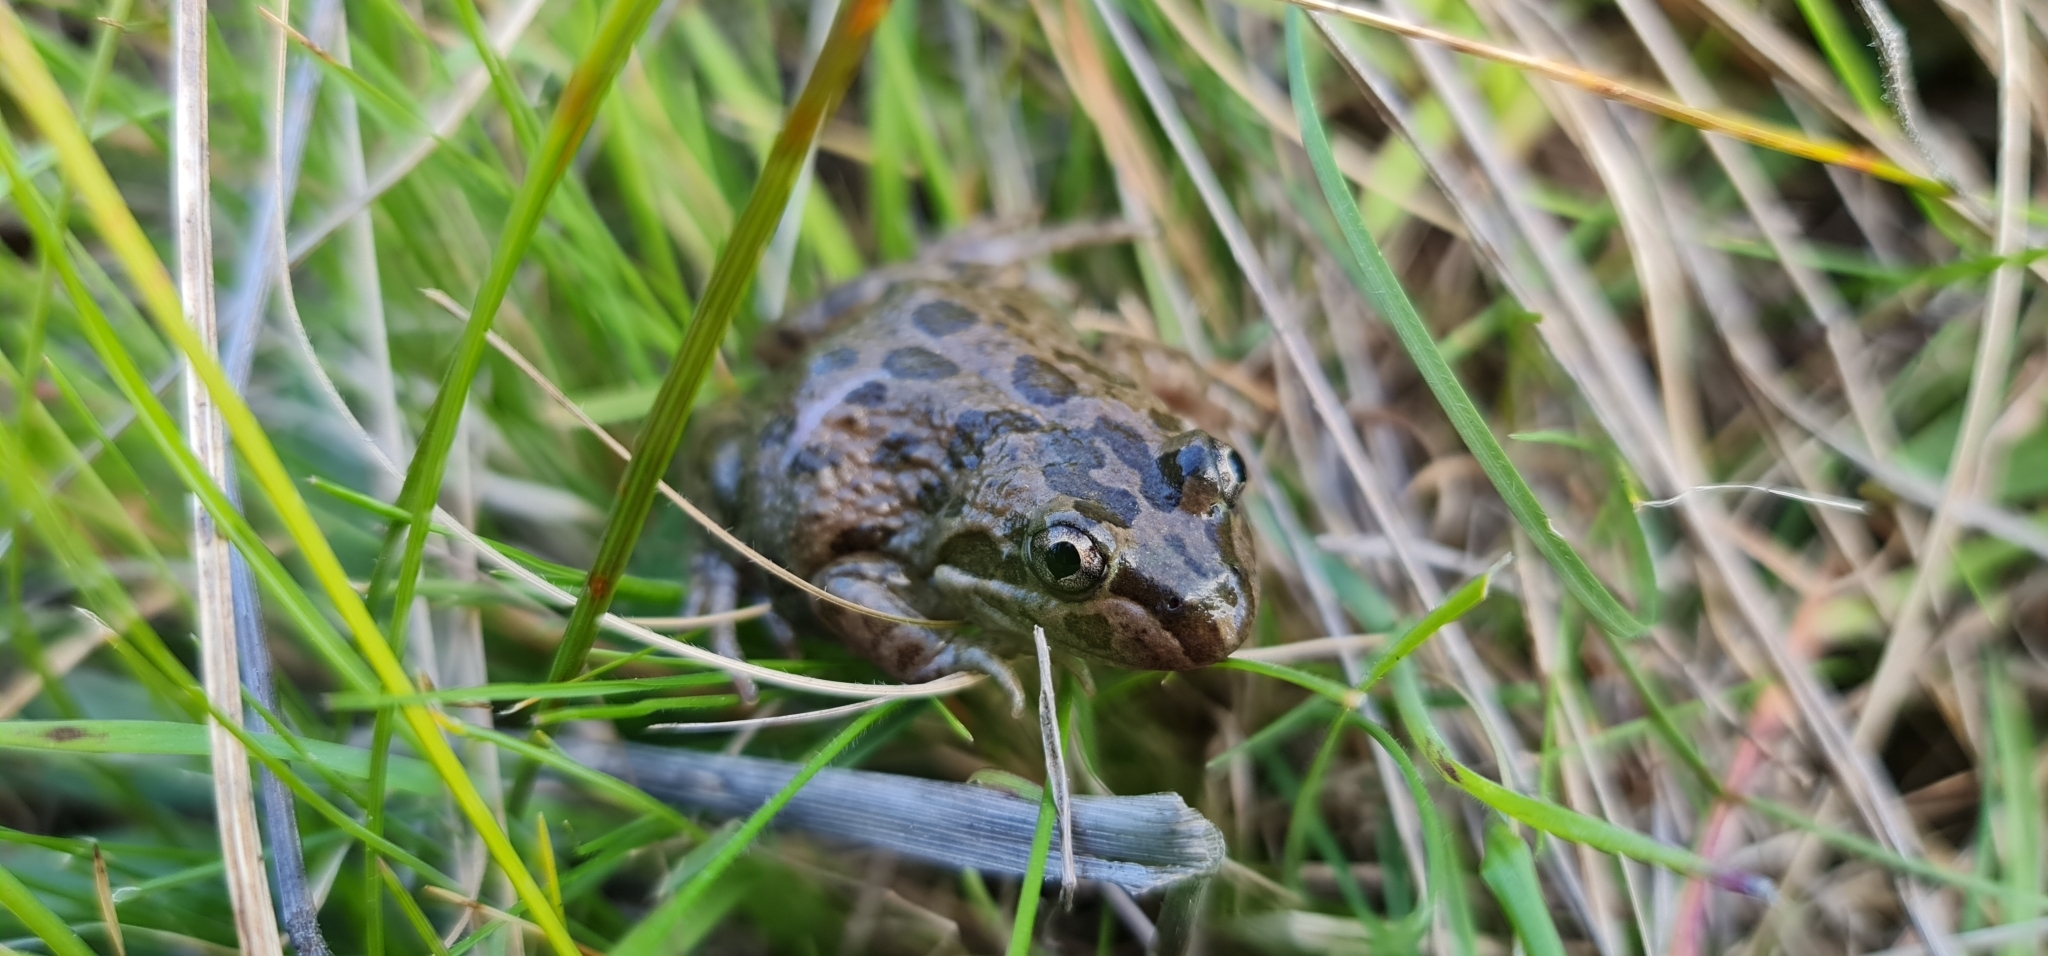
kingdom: Animalia
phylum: Chordata
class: Amphibia
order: Anura
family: Limnodynastidae
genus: Limnodynastes
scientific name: Limnodynastes tasmaniensis
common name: Spotted marsh frog
